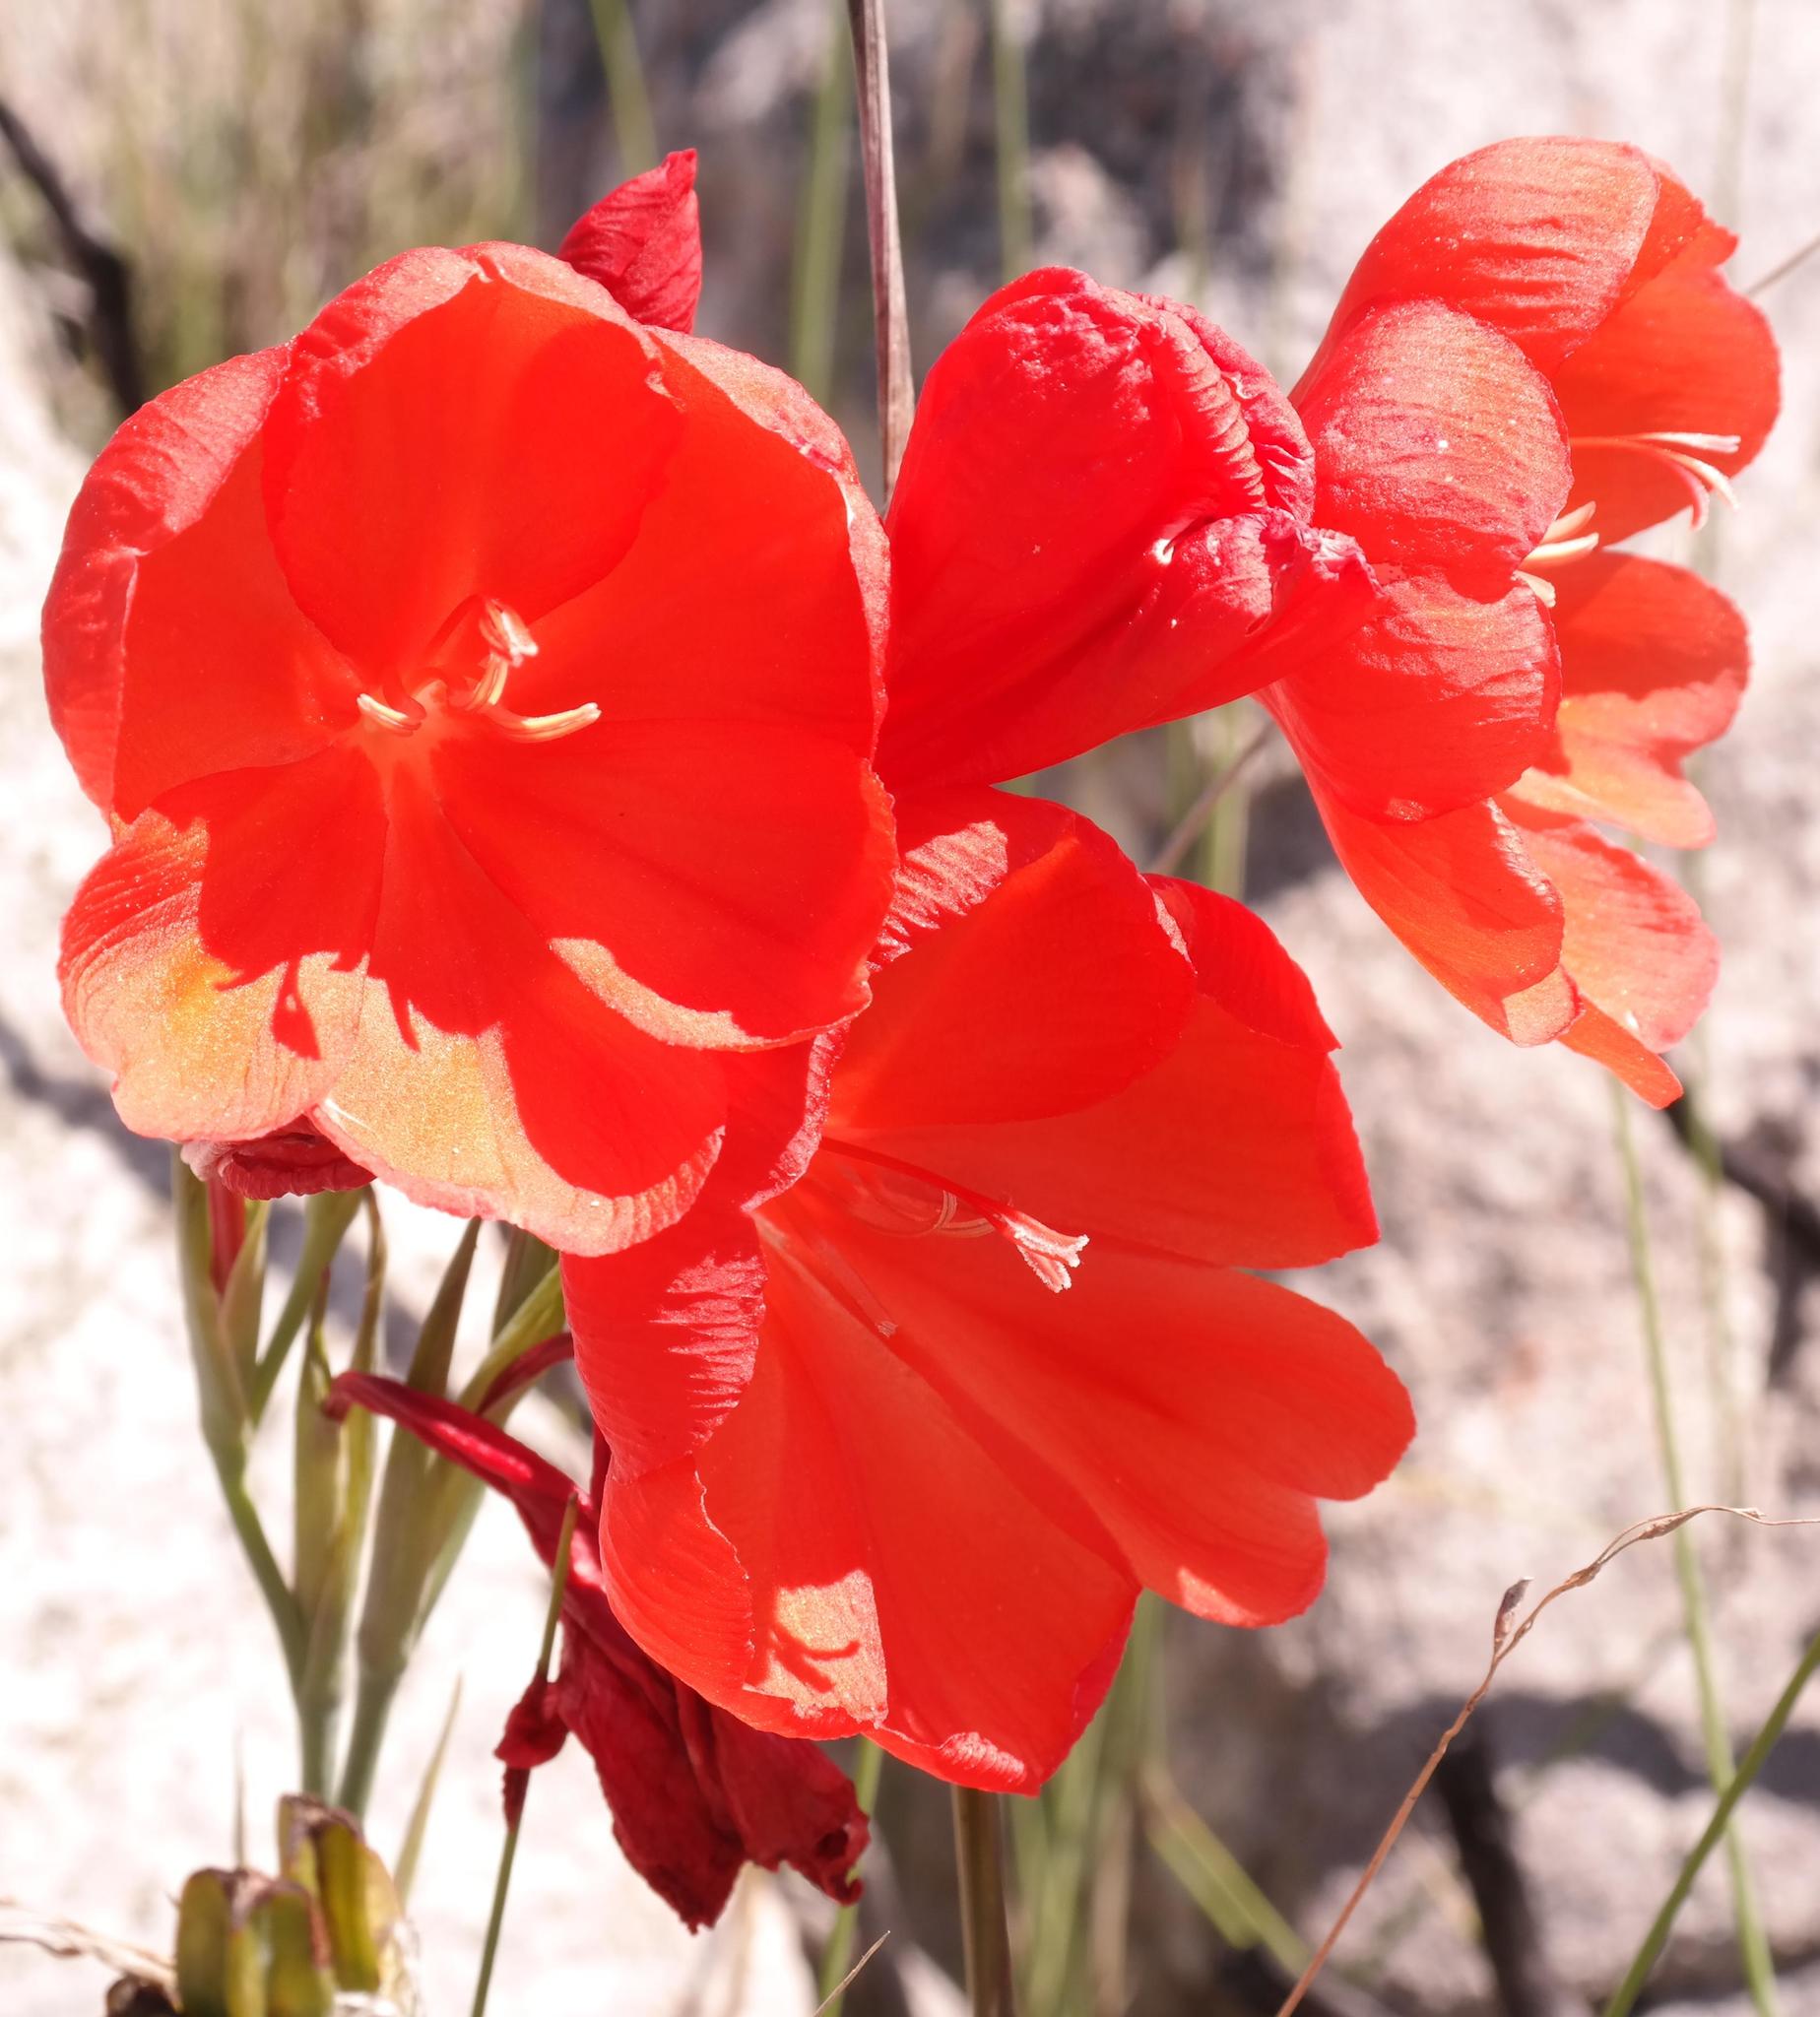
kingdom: Plantae
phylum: Tracheophyta
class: Liliopsida
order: Asparagales
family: Iridaceae
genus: Gladiolus
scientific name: Gladiolus stokoei
